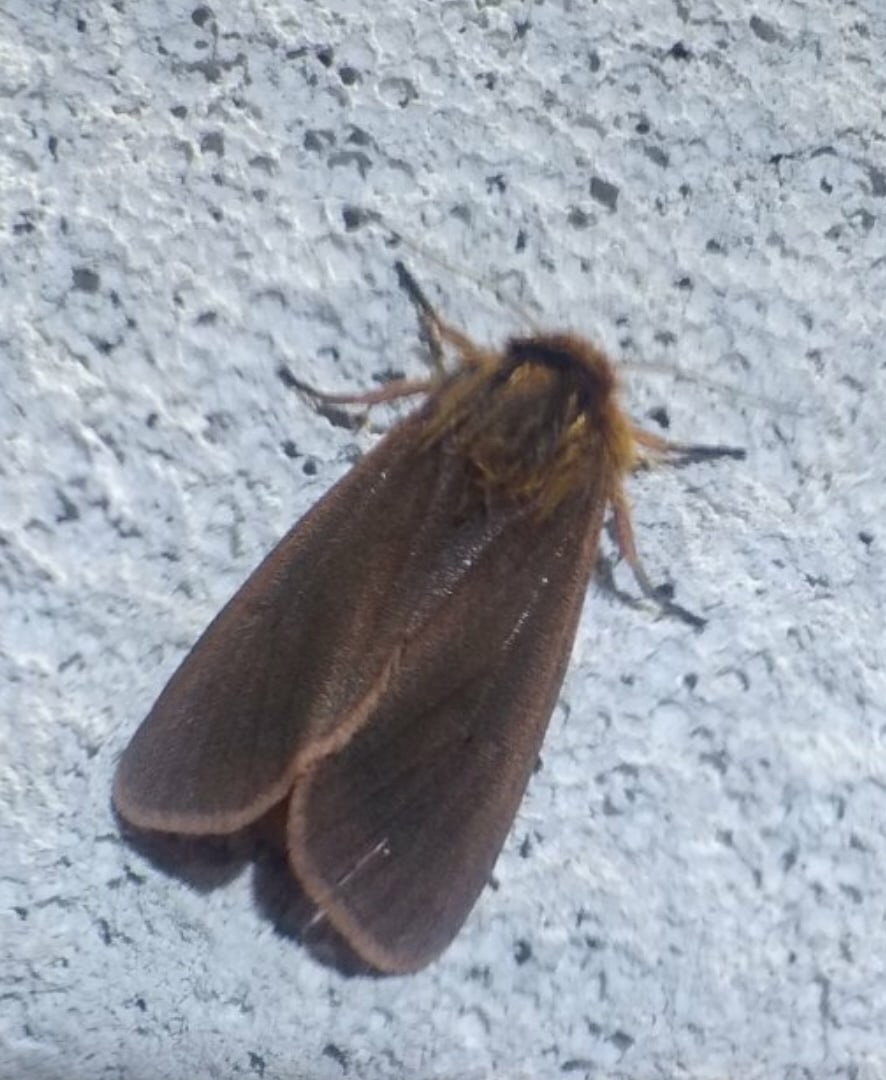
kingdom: Animalia
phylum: Arthropoda
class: Insecta
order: Lepidoptera
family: Erebidae
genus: Phragmatobia
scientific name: Phragmatobia fuliginosa
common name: Ruby tiger
